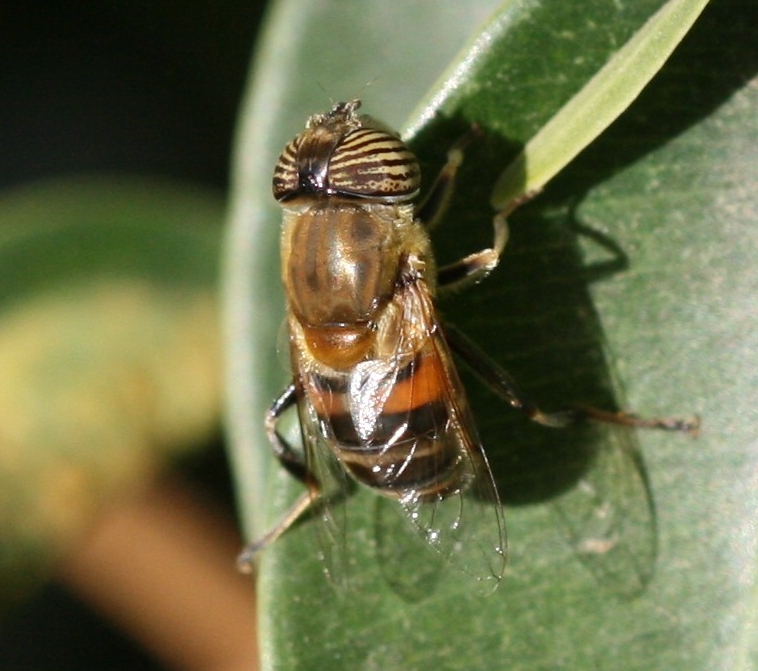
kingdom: Animalia
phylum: Arthropoda
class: Insecta
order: Diptera
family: Syrphidae
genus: Eristalinus
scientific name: Eristalinus taeniops
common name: Syrphid fly
